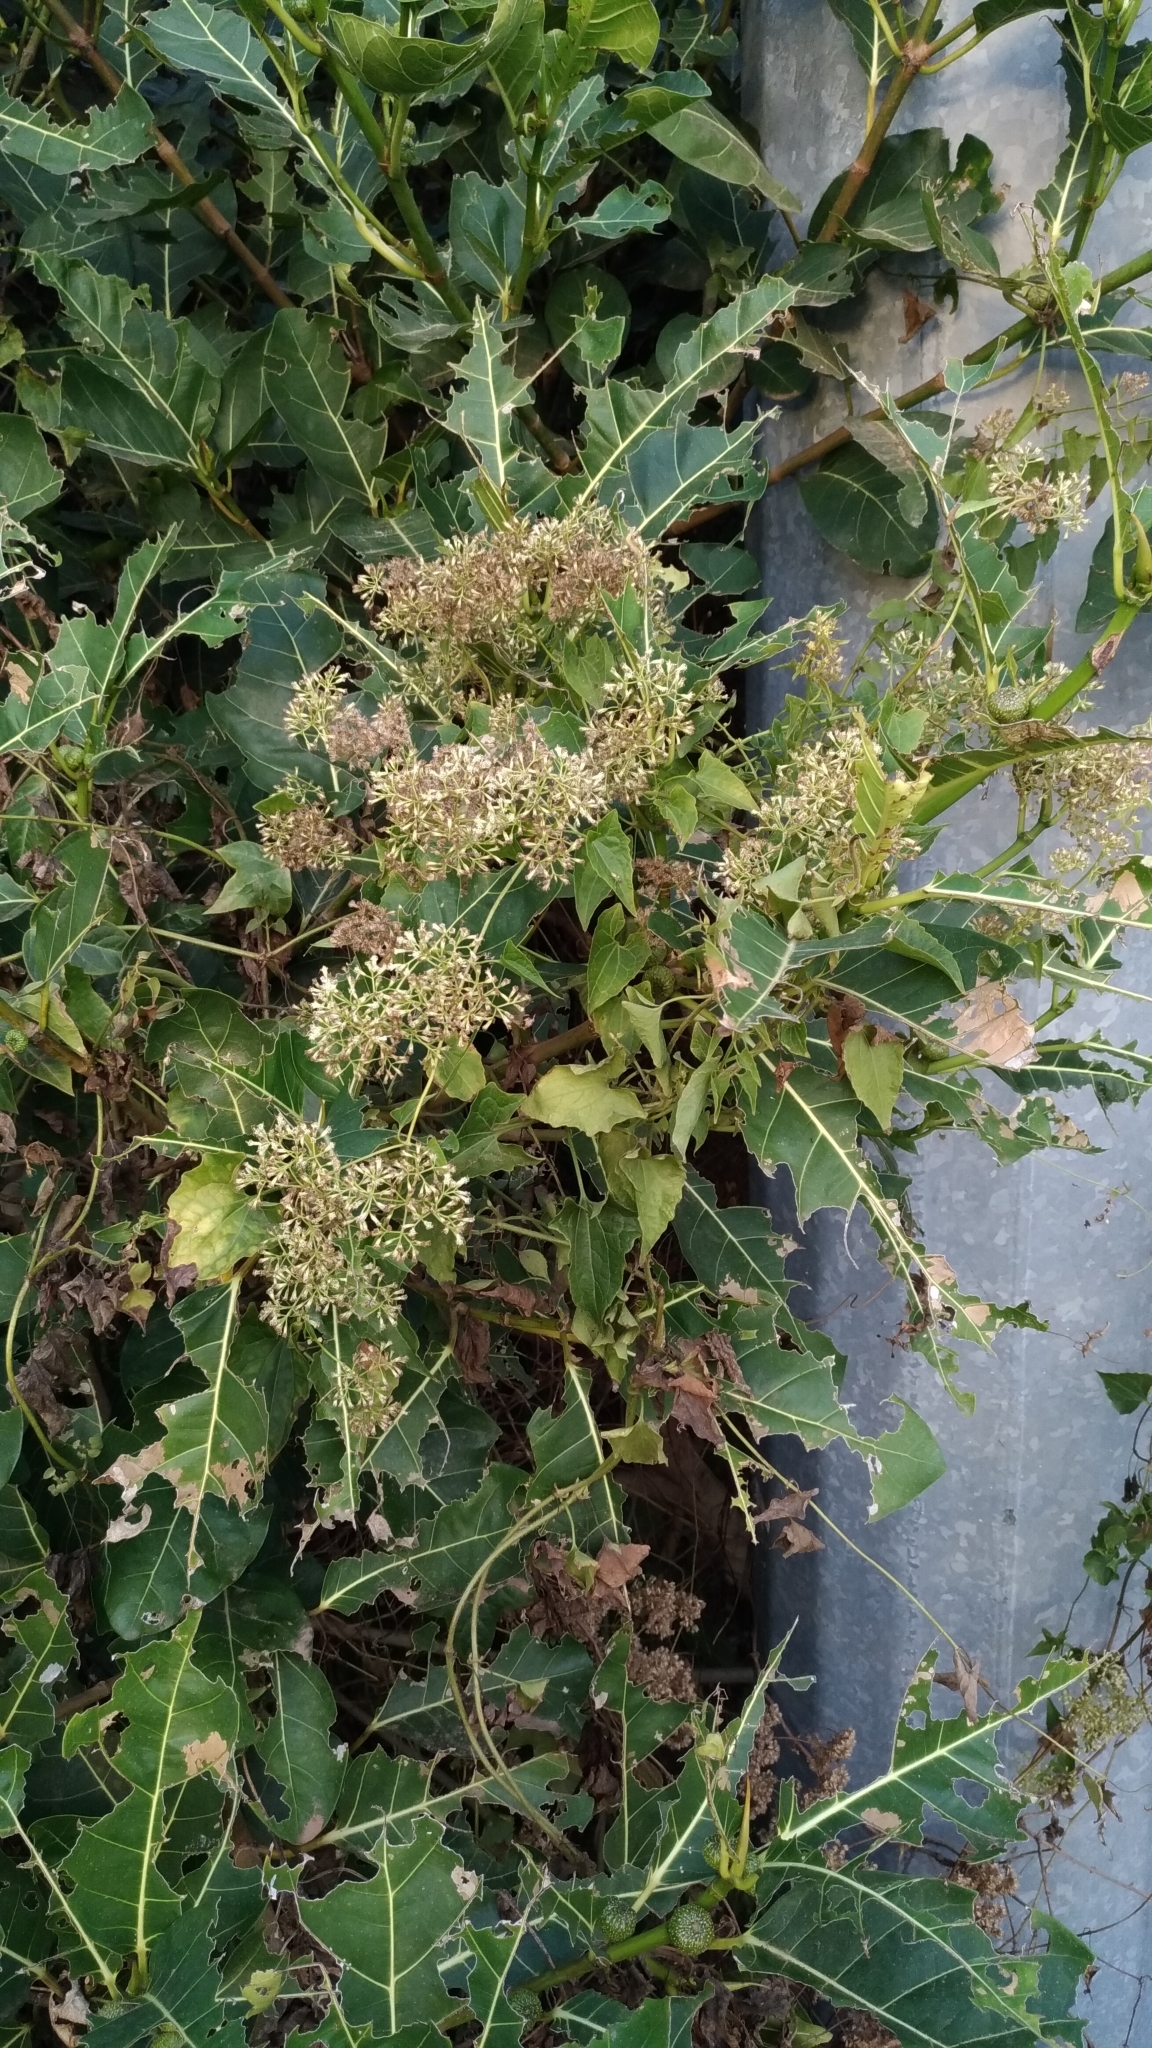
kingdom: Plantae
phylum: Tracheophyta
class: Magnoliopsida
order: Asterales
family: Asteraceae
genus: Mikania
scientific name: Mikania micrantha
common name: Mile-a-minute
